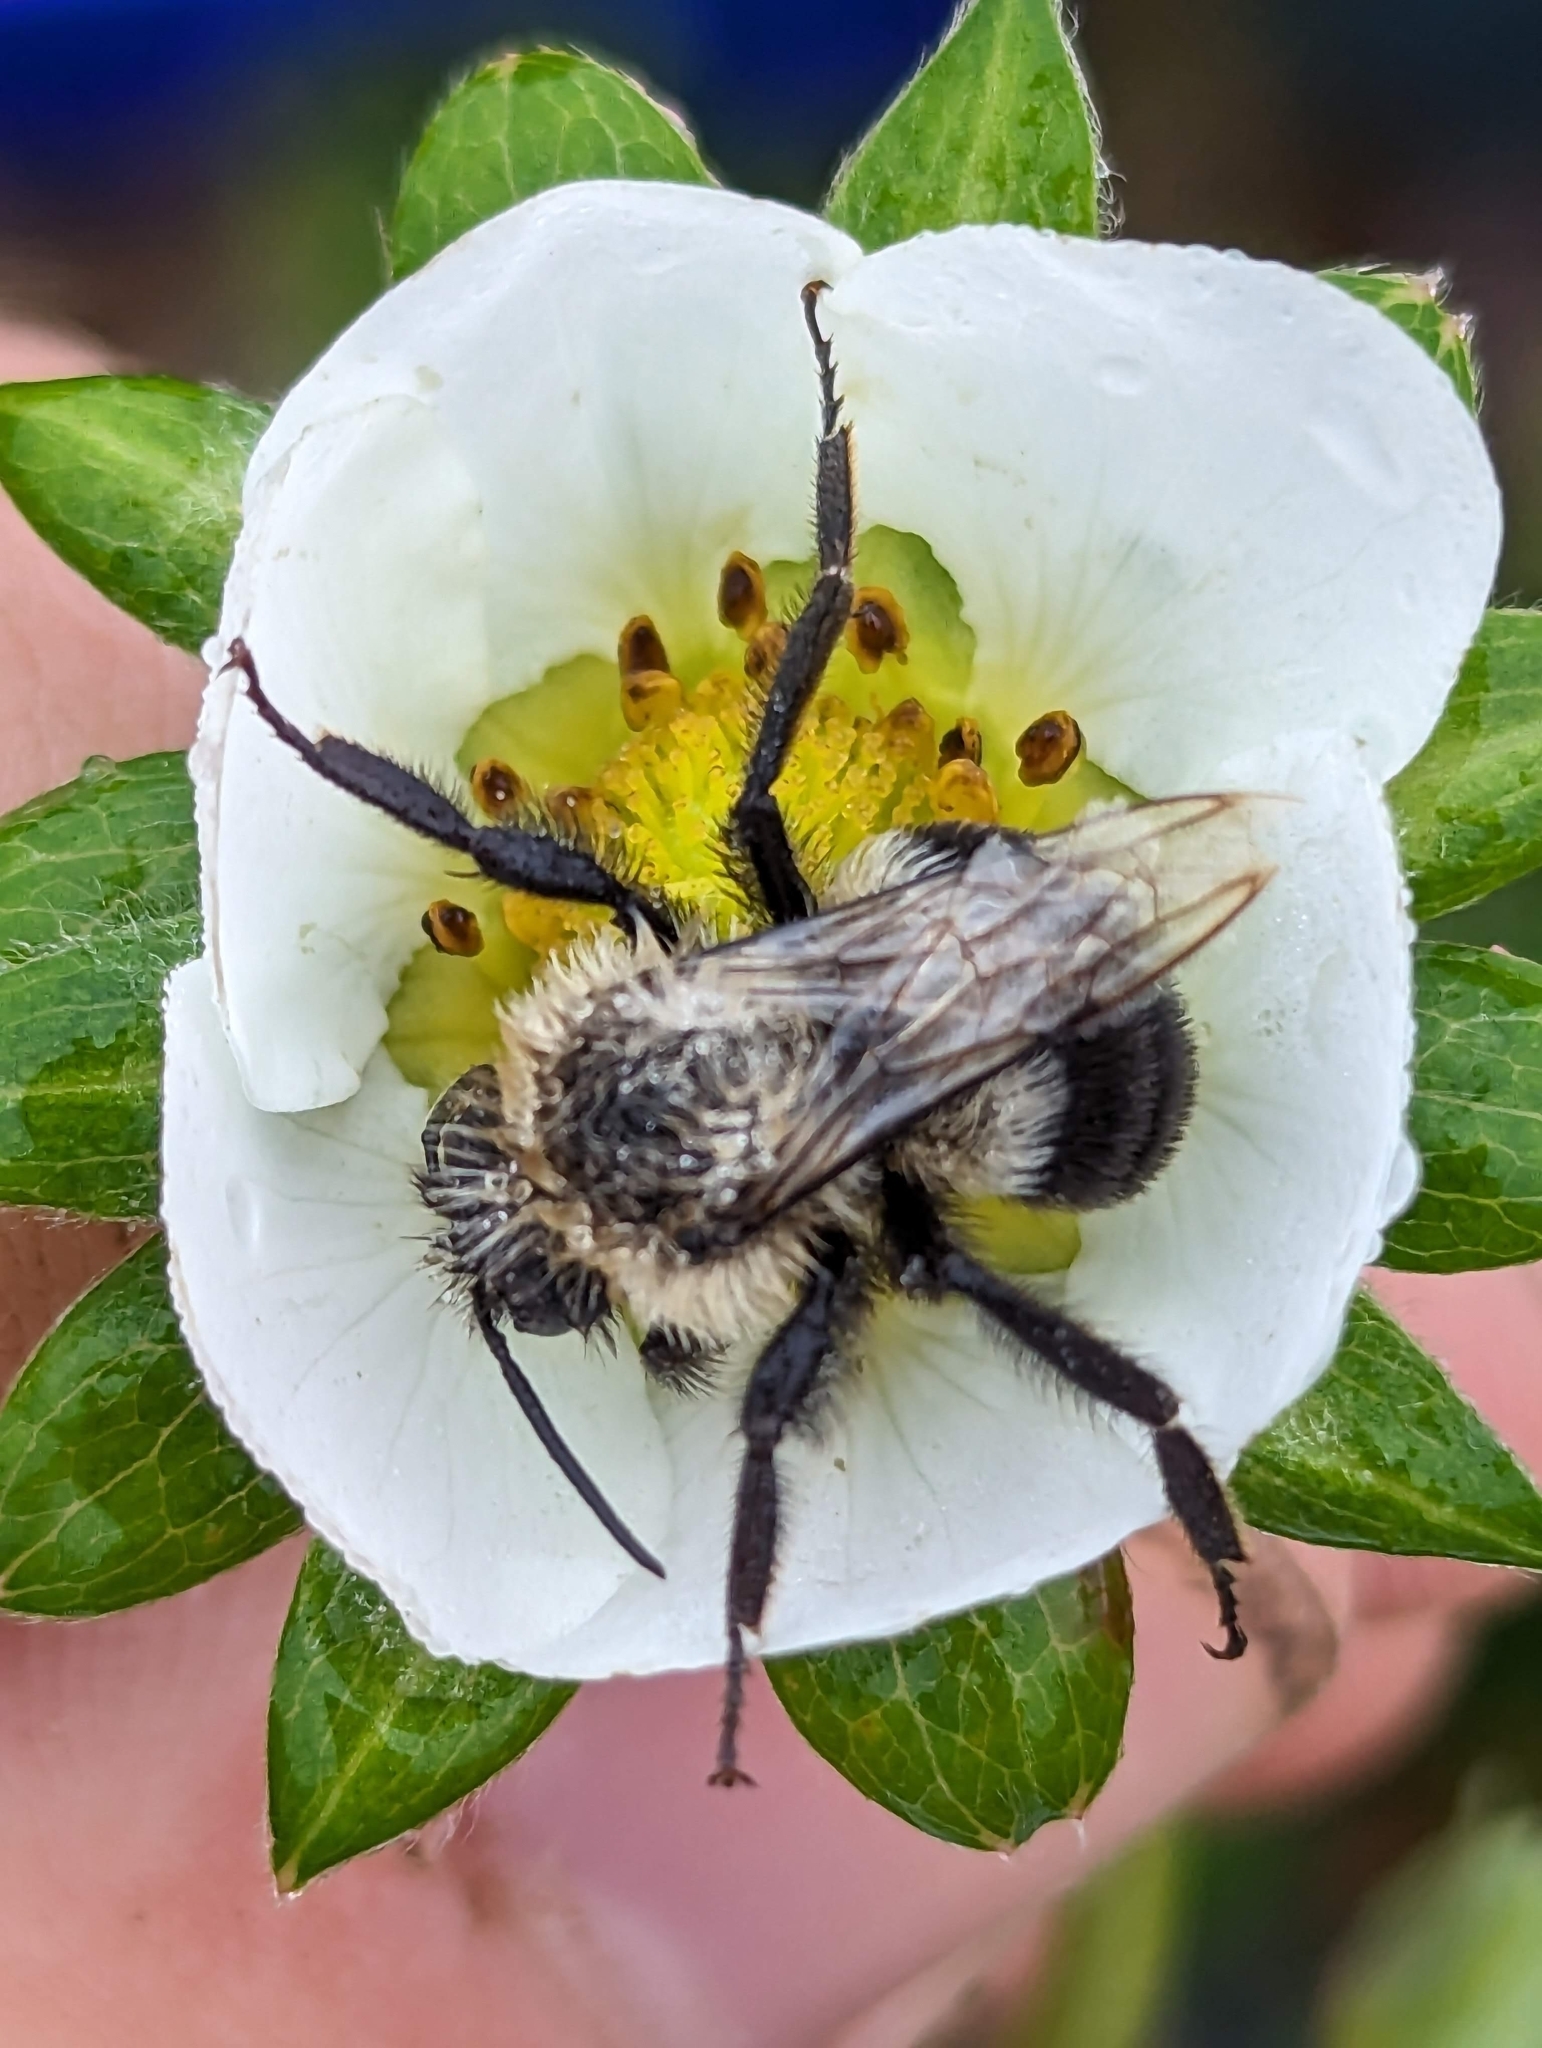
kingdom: Animalia
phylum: Arthropoda
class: Insecta
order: Hymenoptera
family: Apidae
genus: Bombus
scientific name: Bombus impatiens
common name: Common eastern bumble bee
